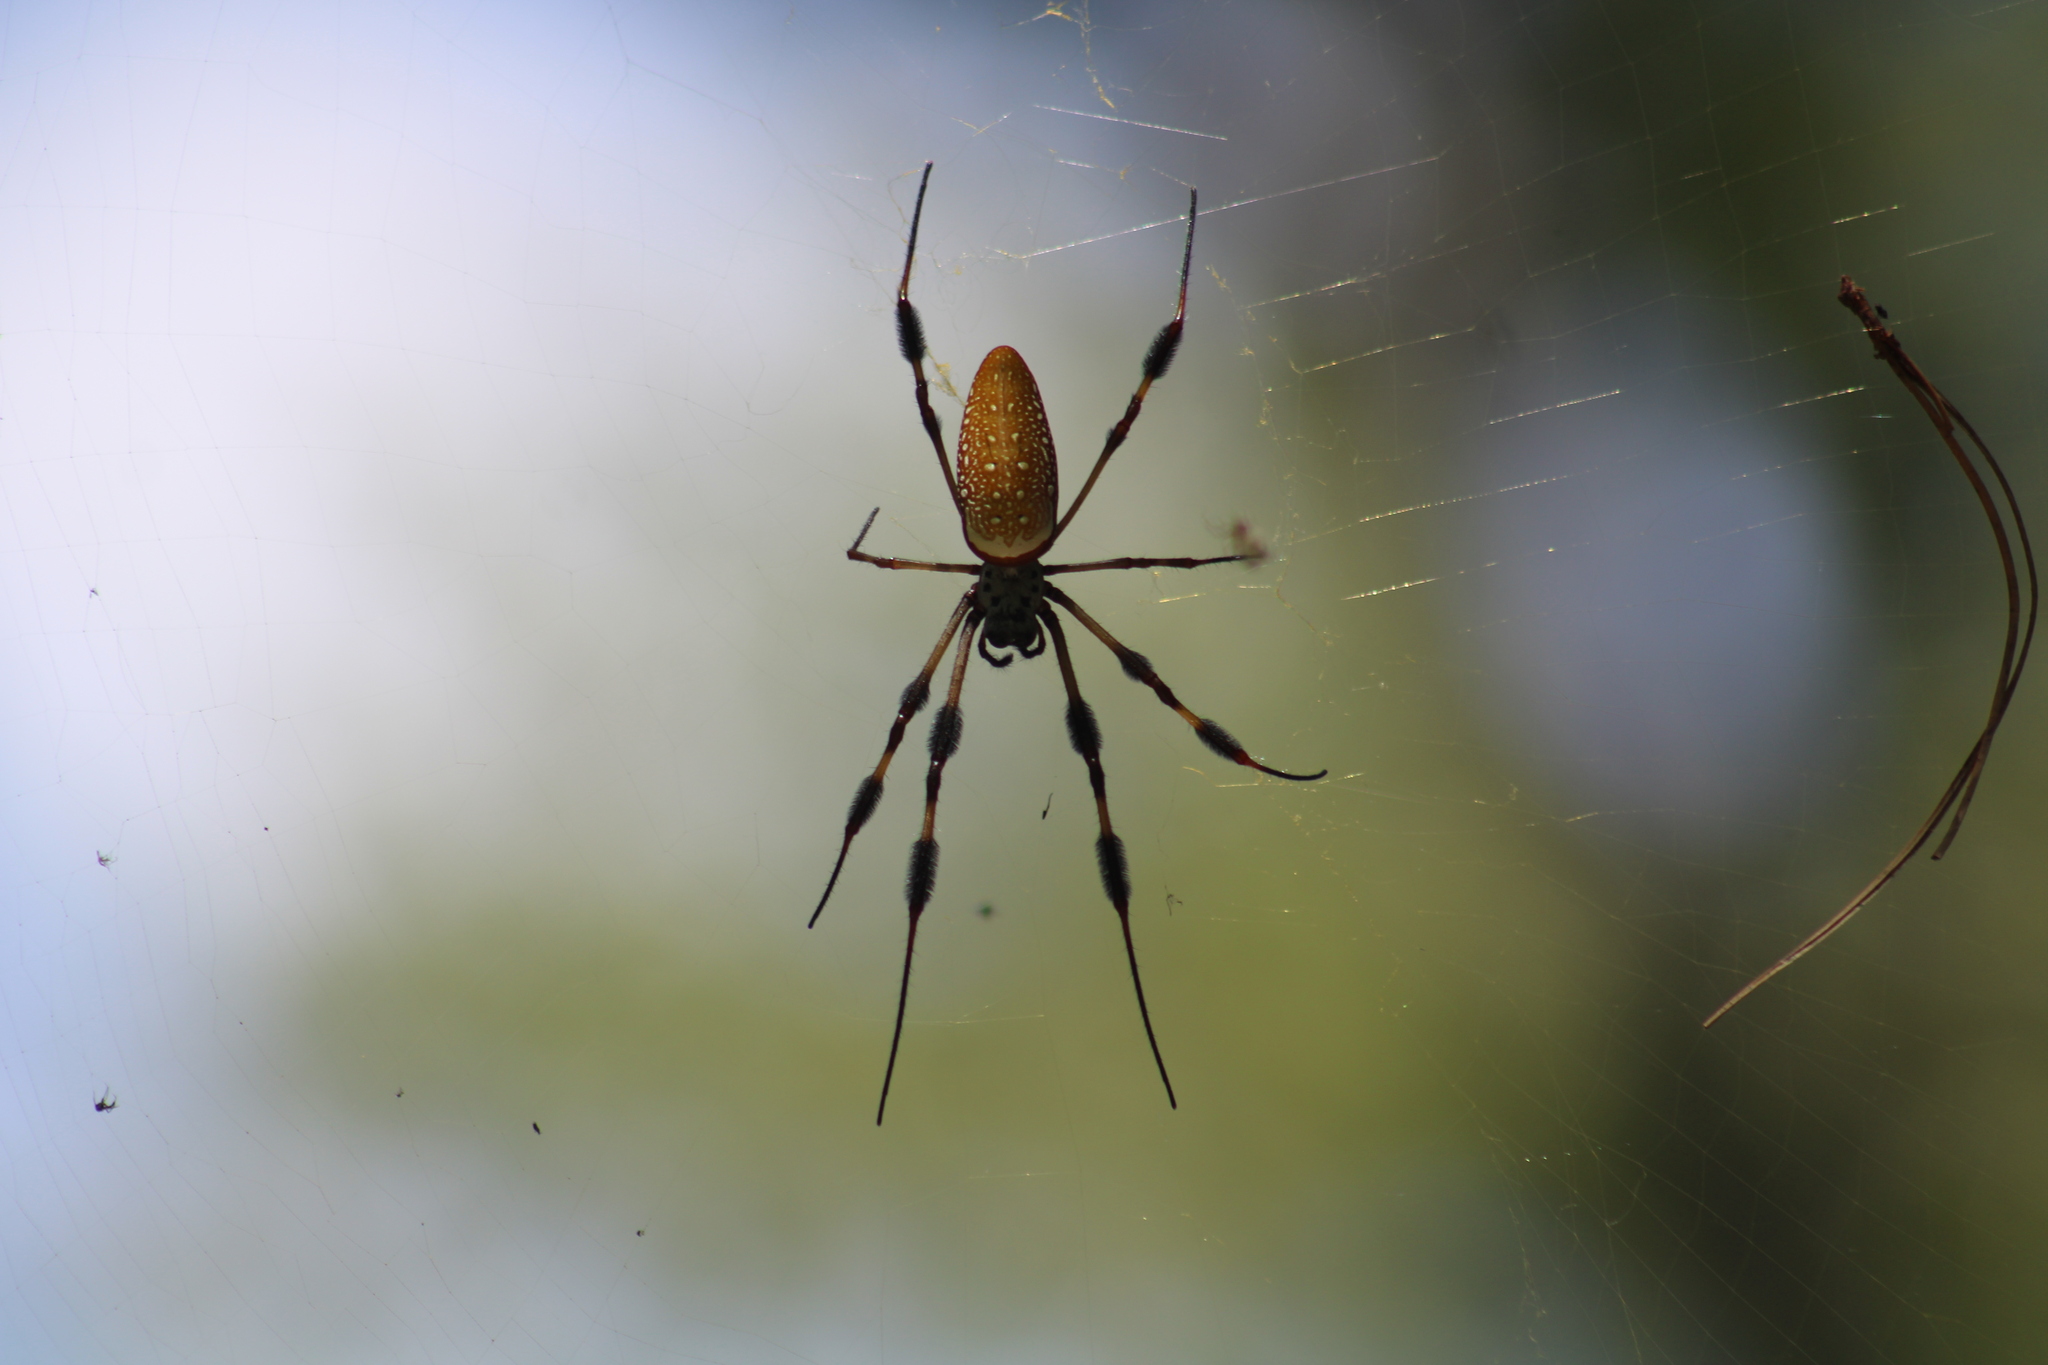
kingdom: Animalia
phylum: Arthropoda
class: Arachnida
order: Araneae
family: Araneidae
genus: Trichonephila
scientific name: Trichonephila clavipes
